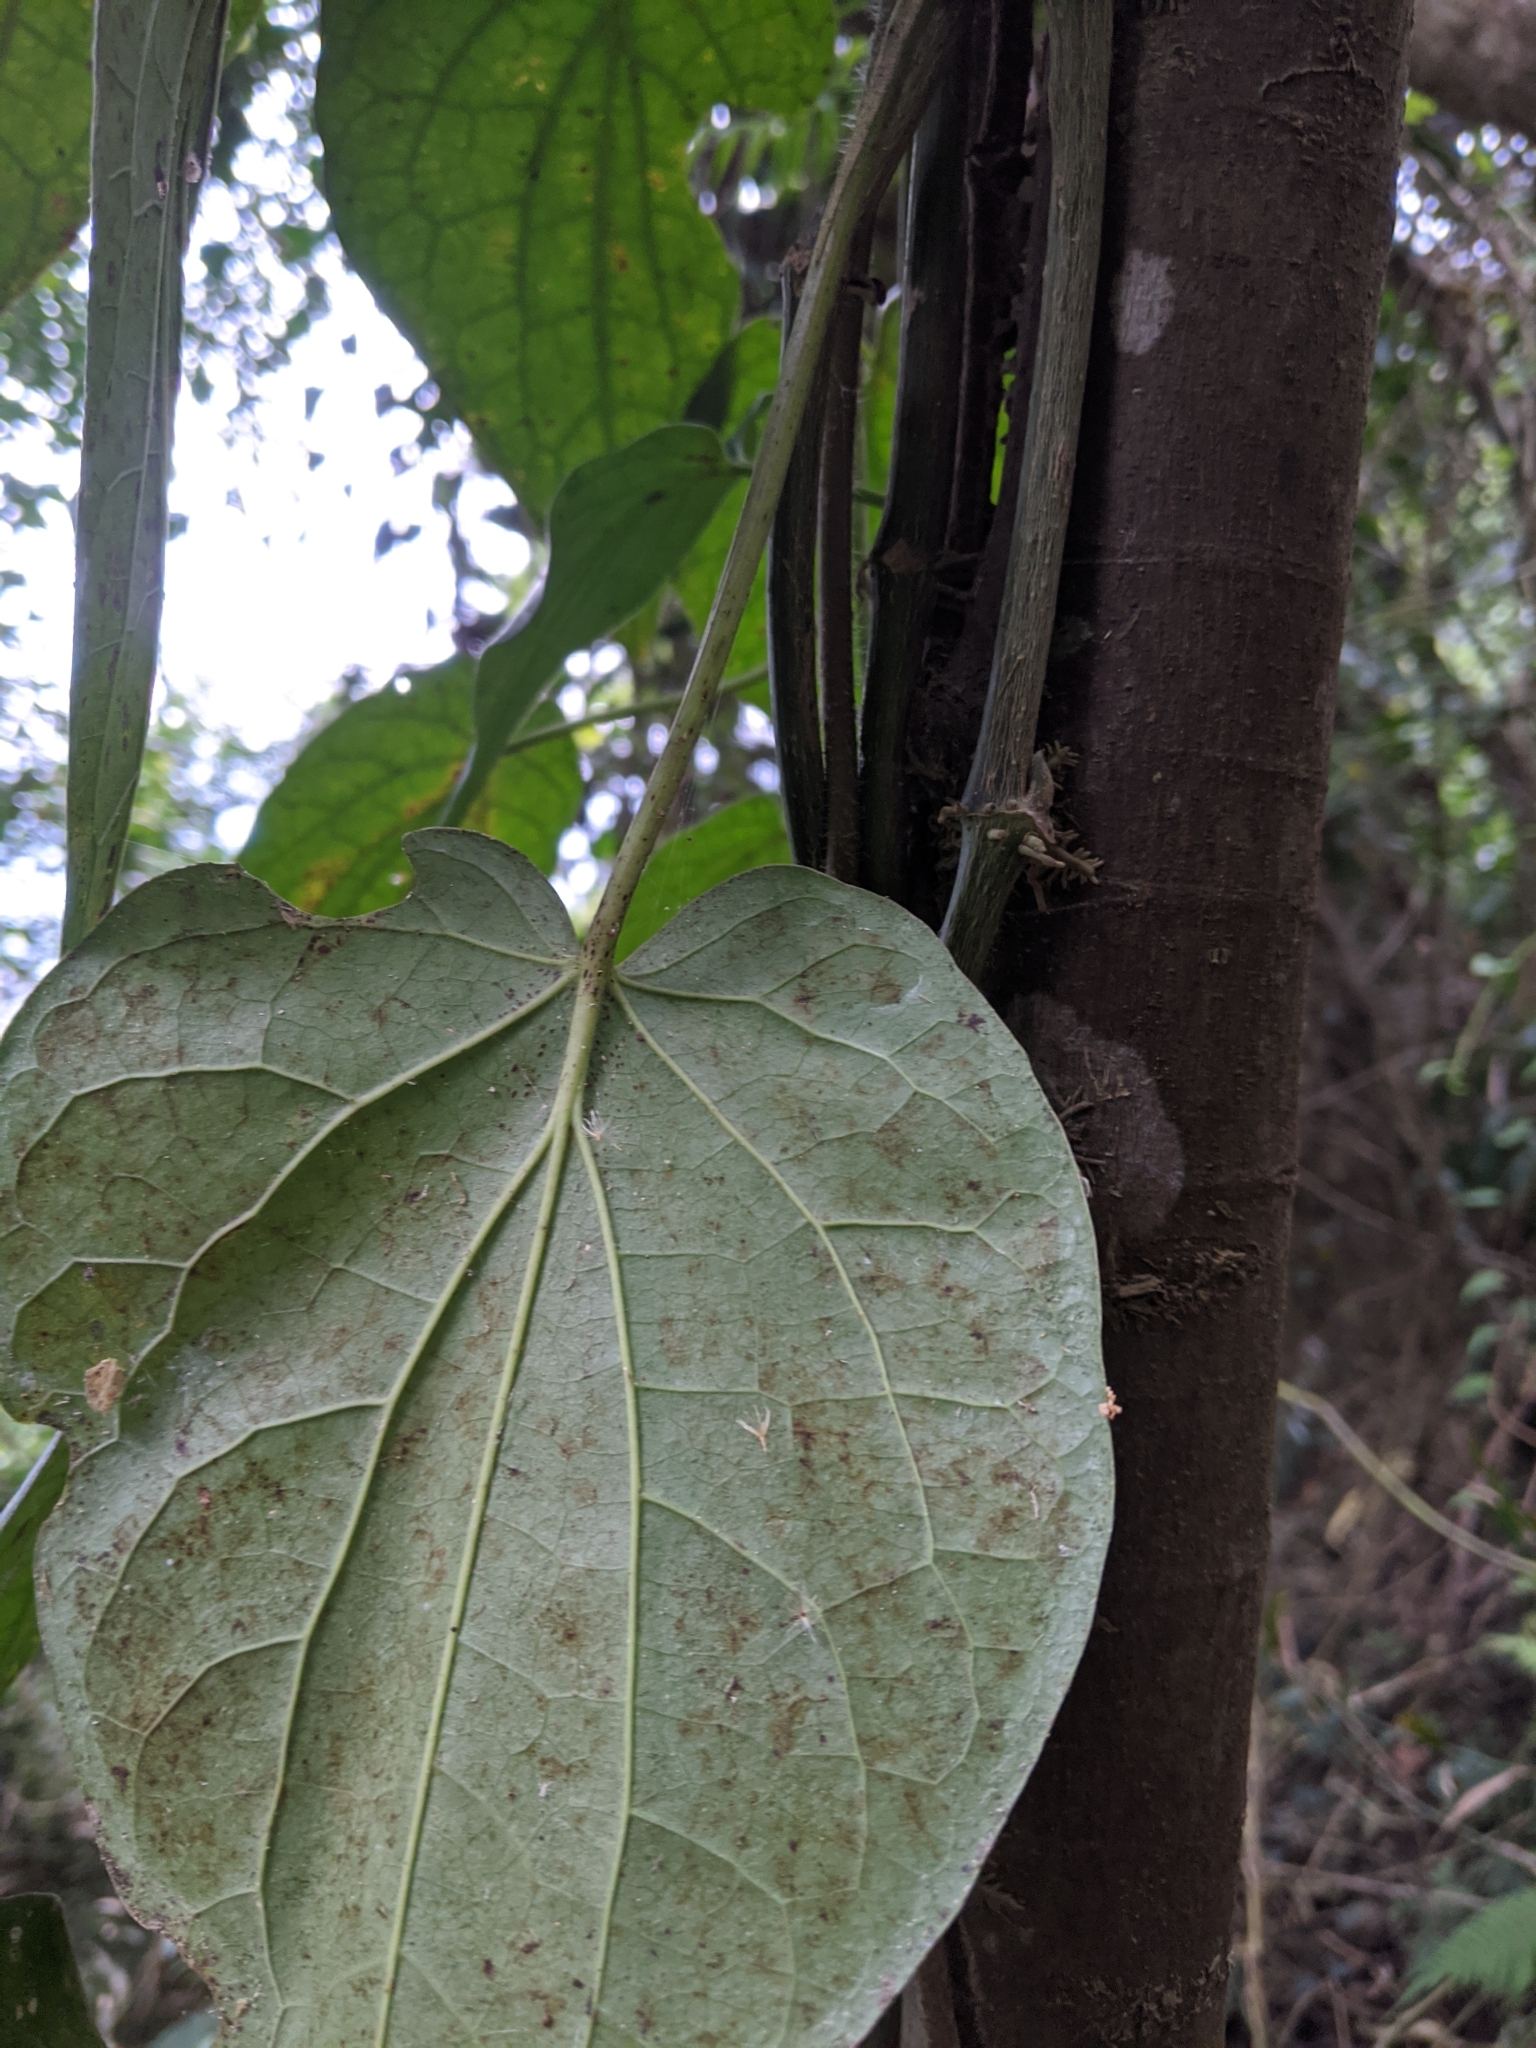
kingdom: Plantae
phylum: Tracheophyta
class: Magnoliopsida
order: Piperales
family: Piperaceae
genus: Piper
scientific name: Piper betle
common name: Betel pepper
